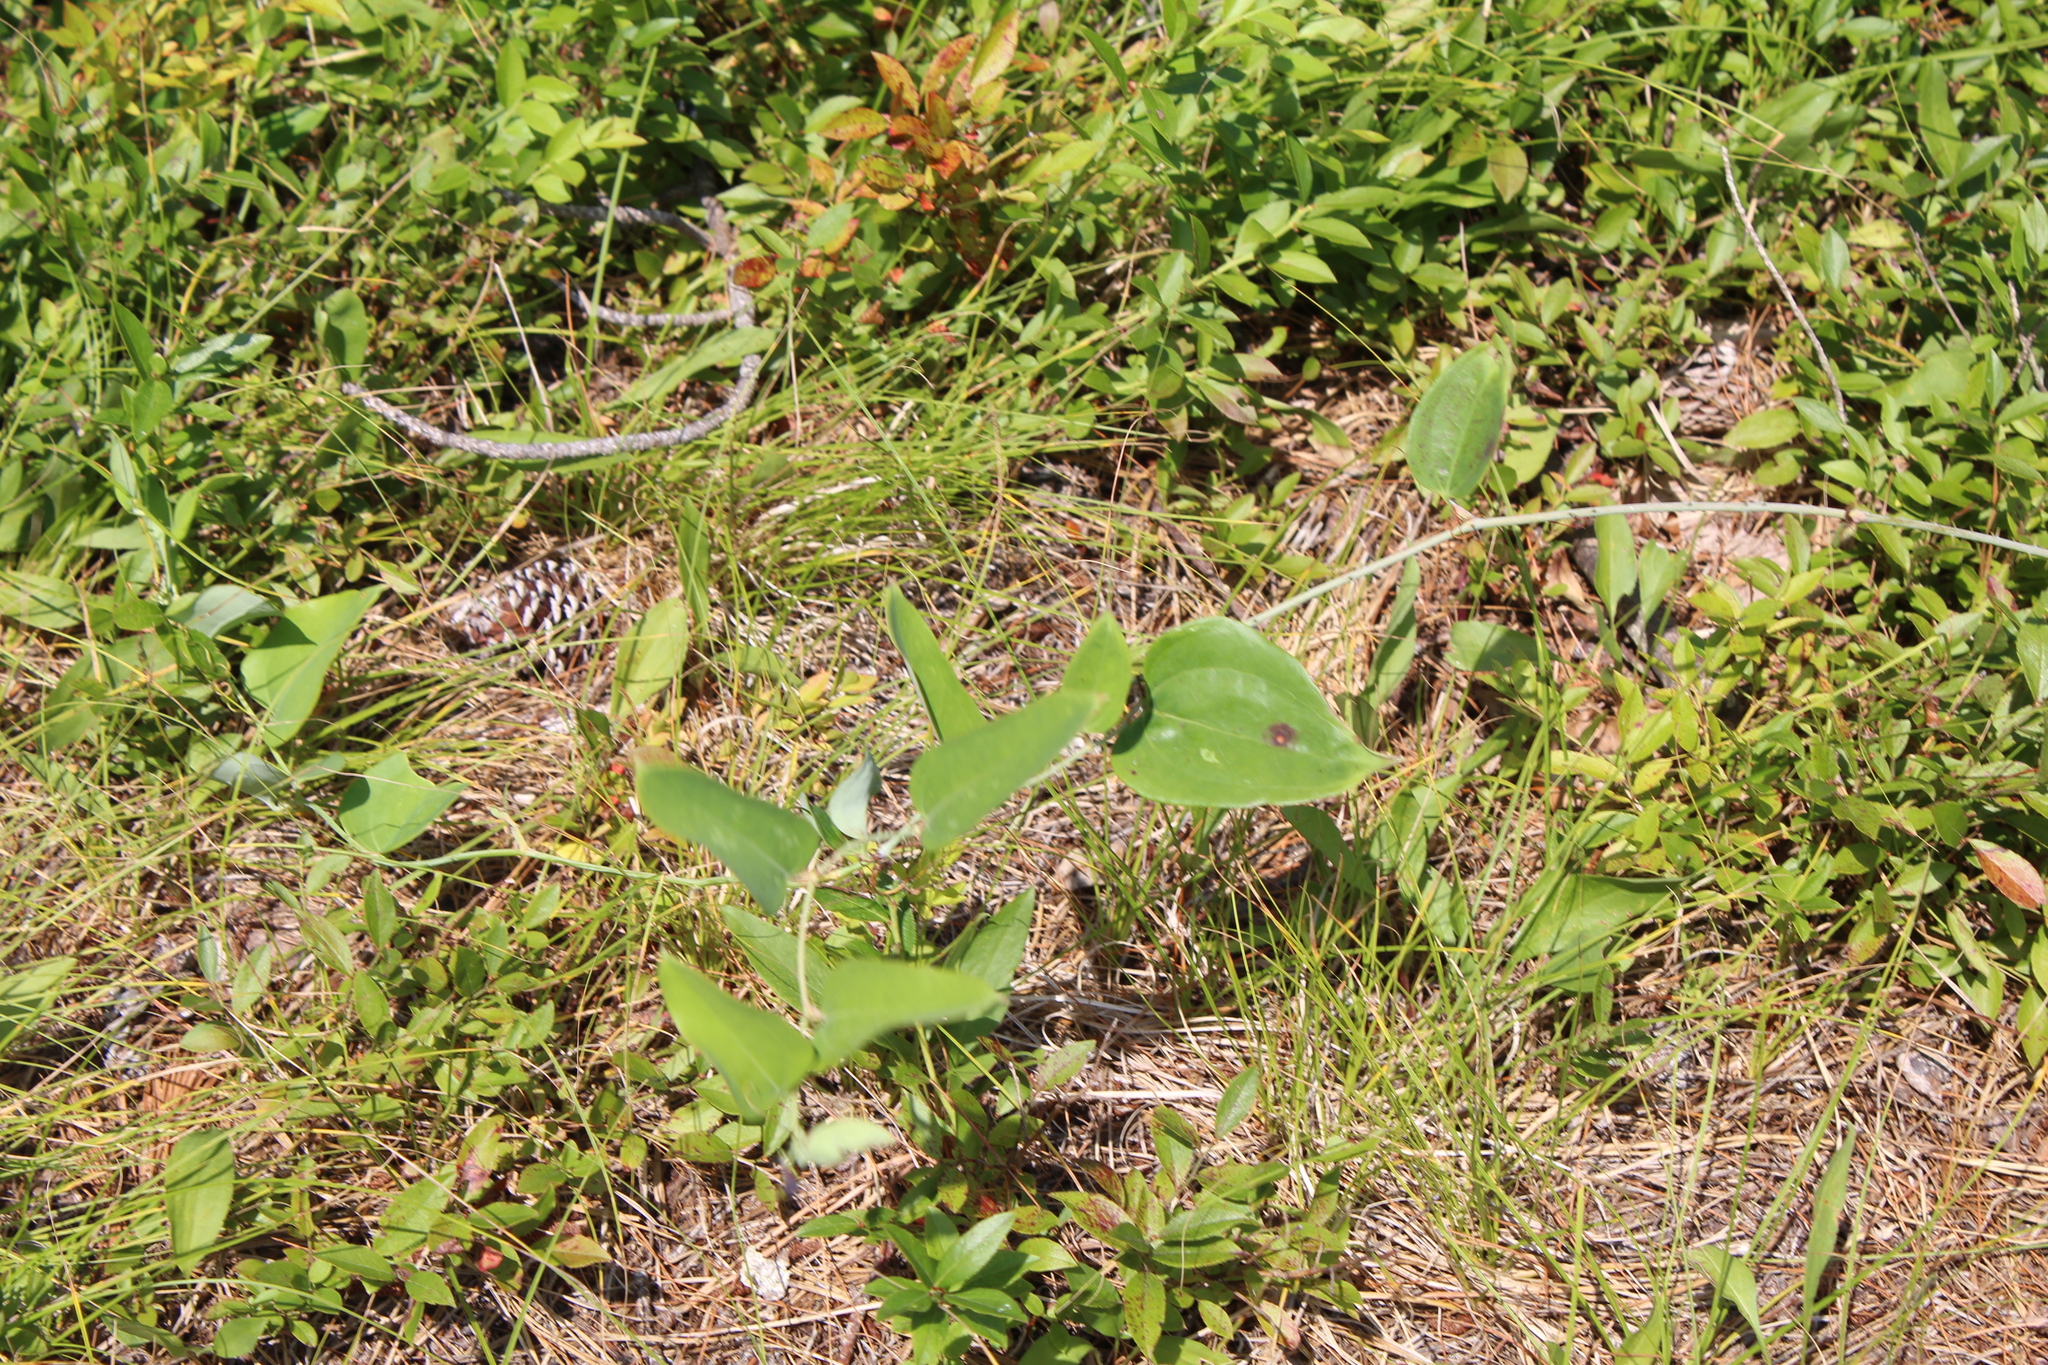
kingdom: Plantae
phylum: Tracheophyta
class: Liliopsida
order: Liliales
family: Smilacaceae
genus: Smilax
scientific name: Smilax glauca
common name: Cat greenbrier
